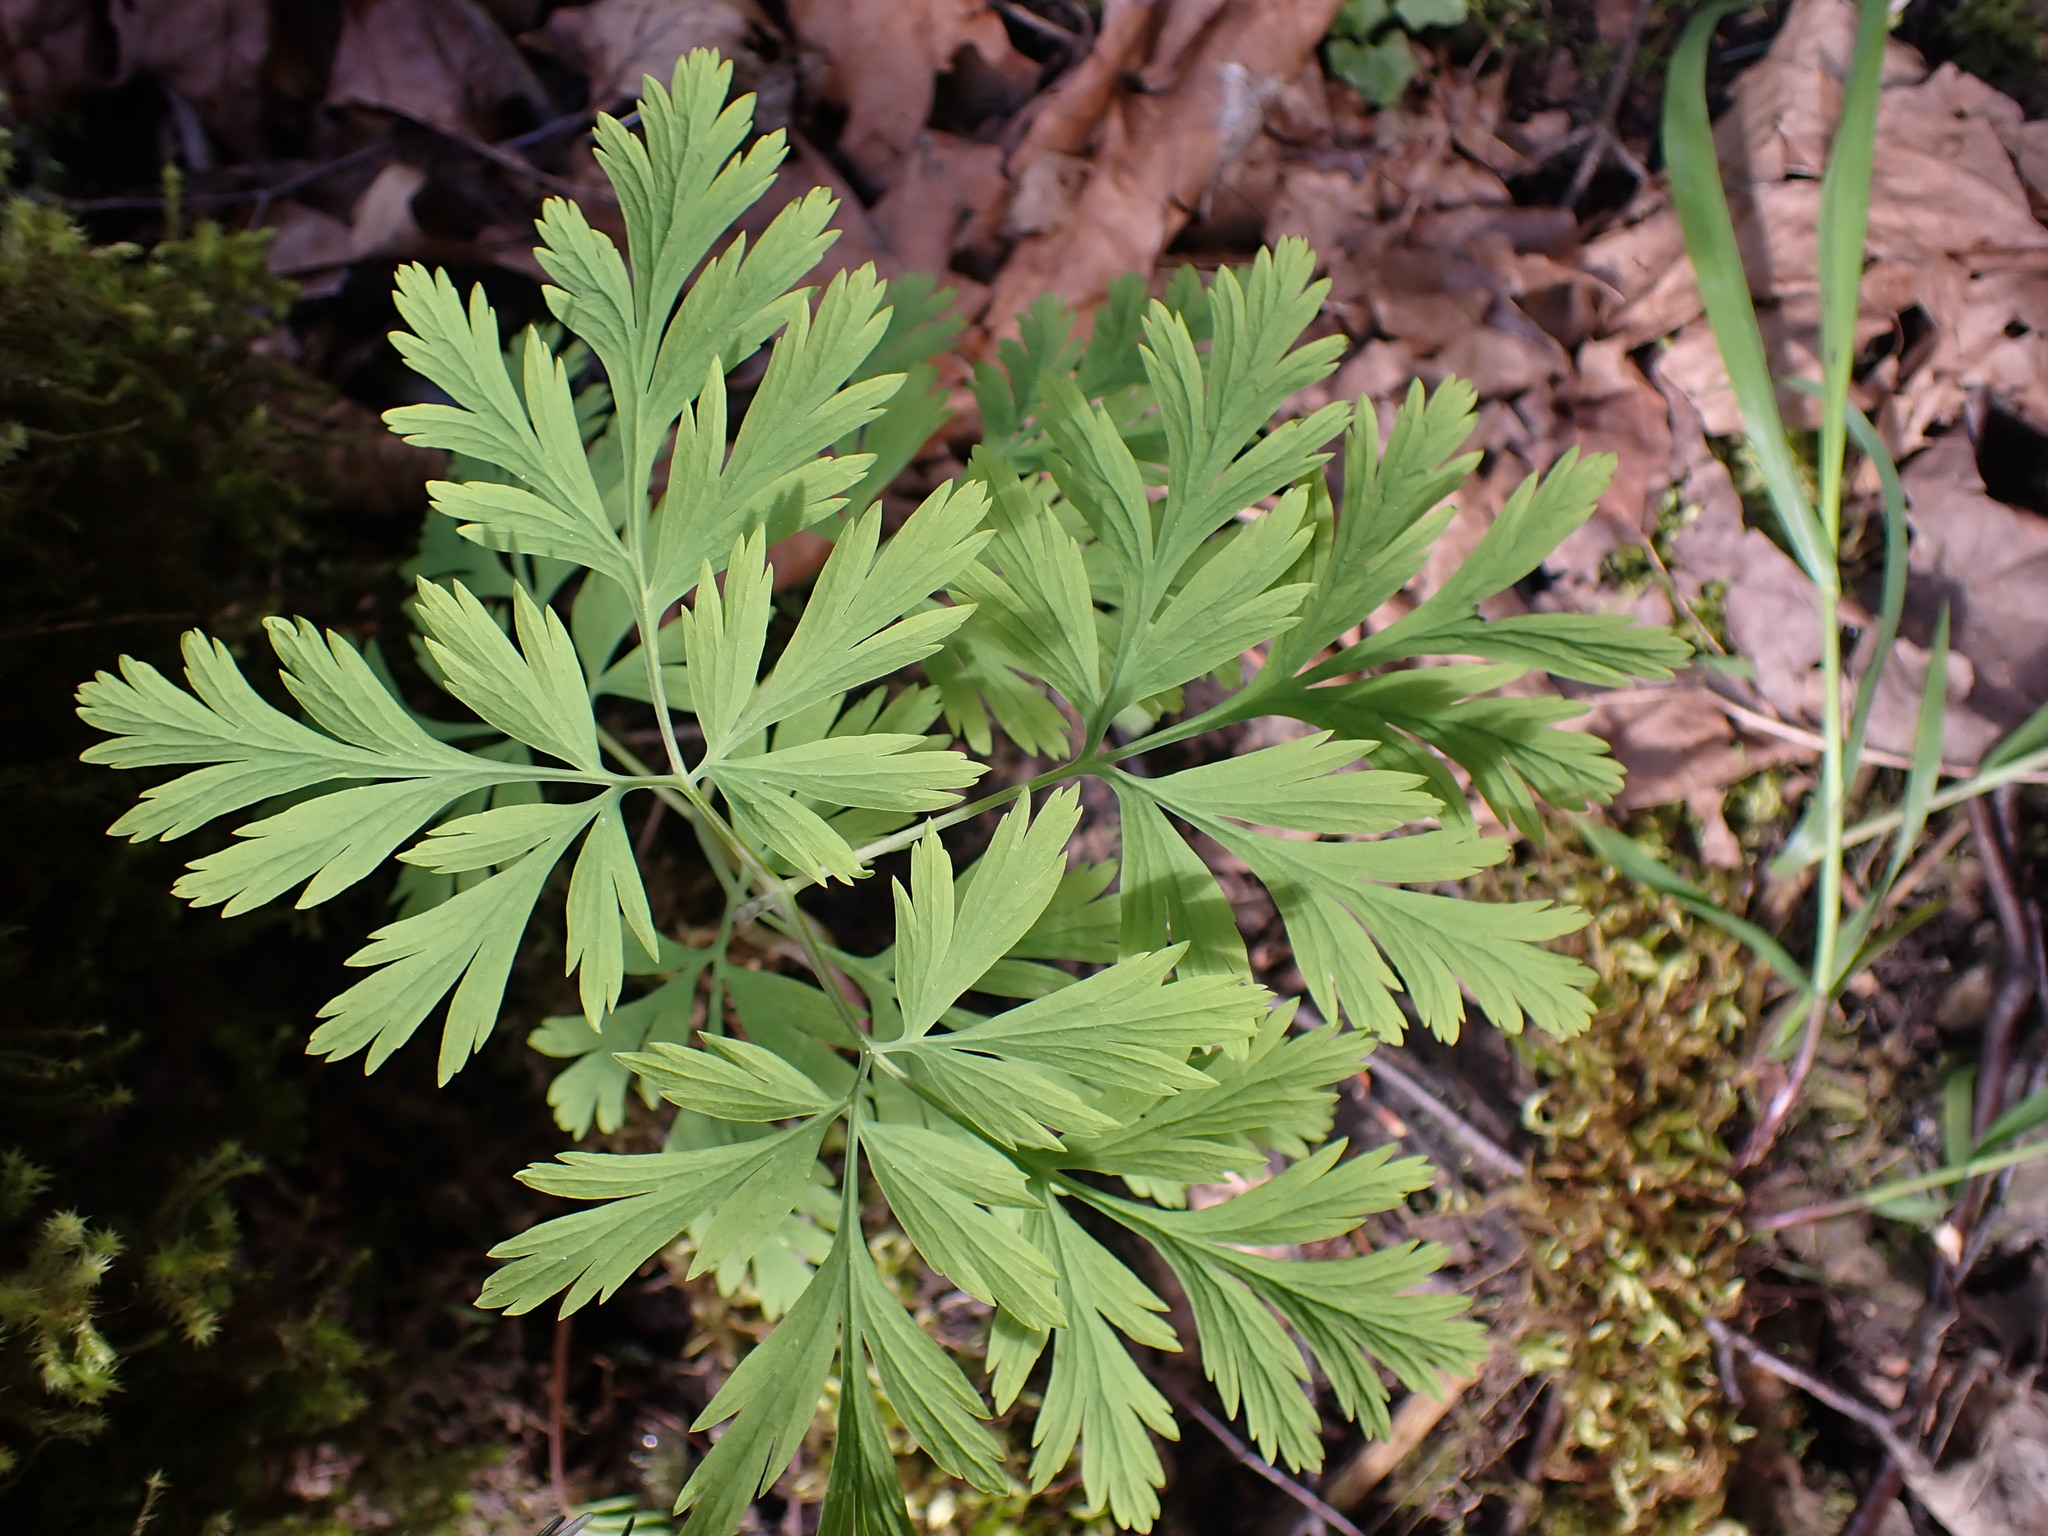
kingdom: Plantae
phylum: Tracheophyta
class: Magnoliopsida
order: Ranunculales
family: Papaveraceae
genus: Dicentra
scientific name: Dicentra formosa
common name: Bleeding-heart
